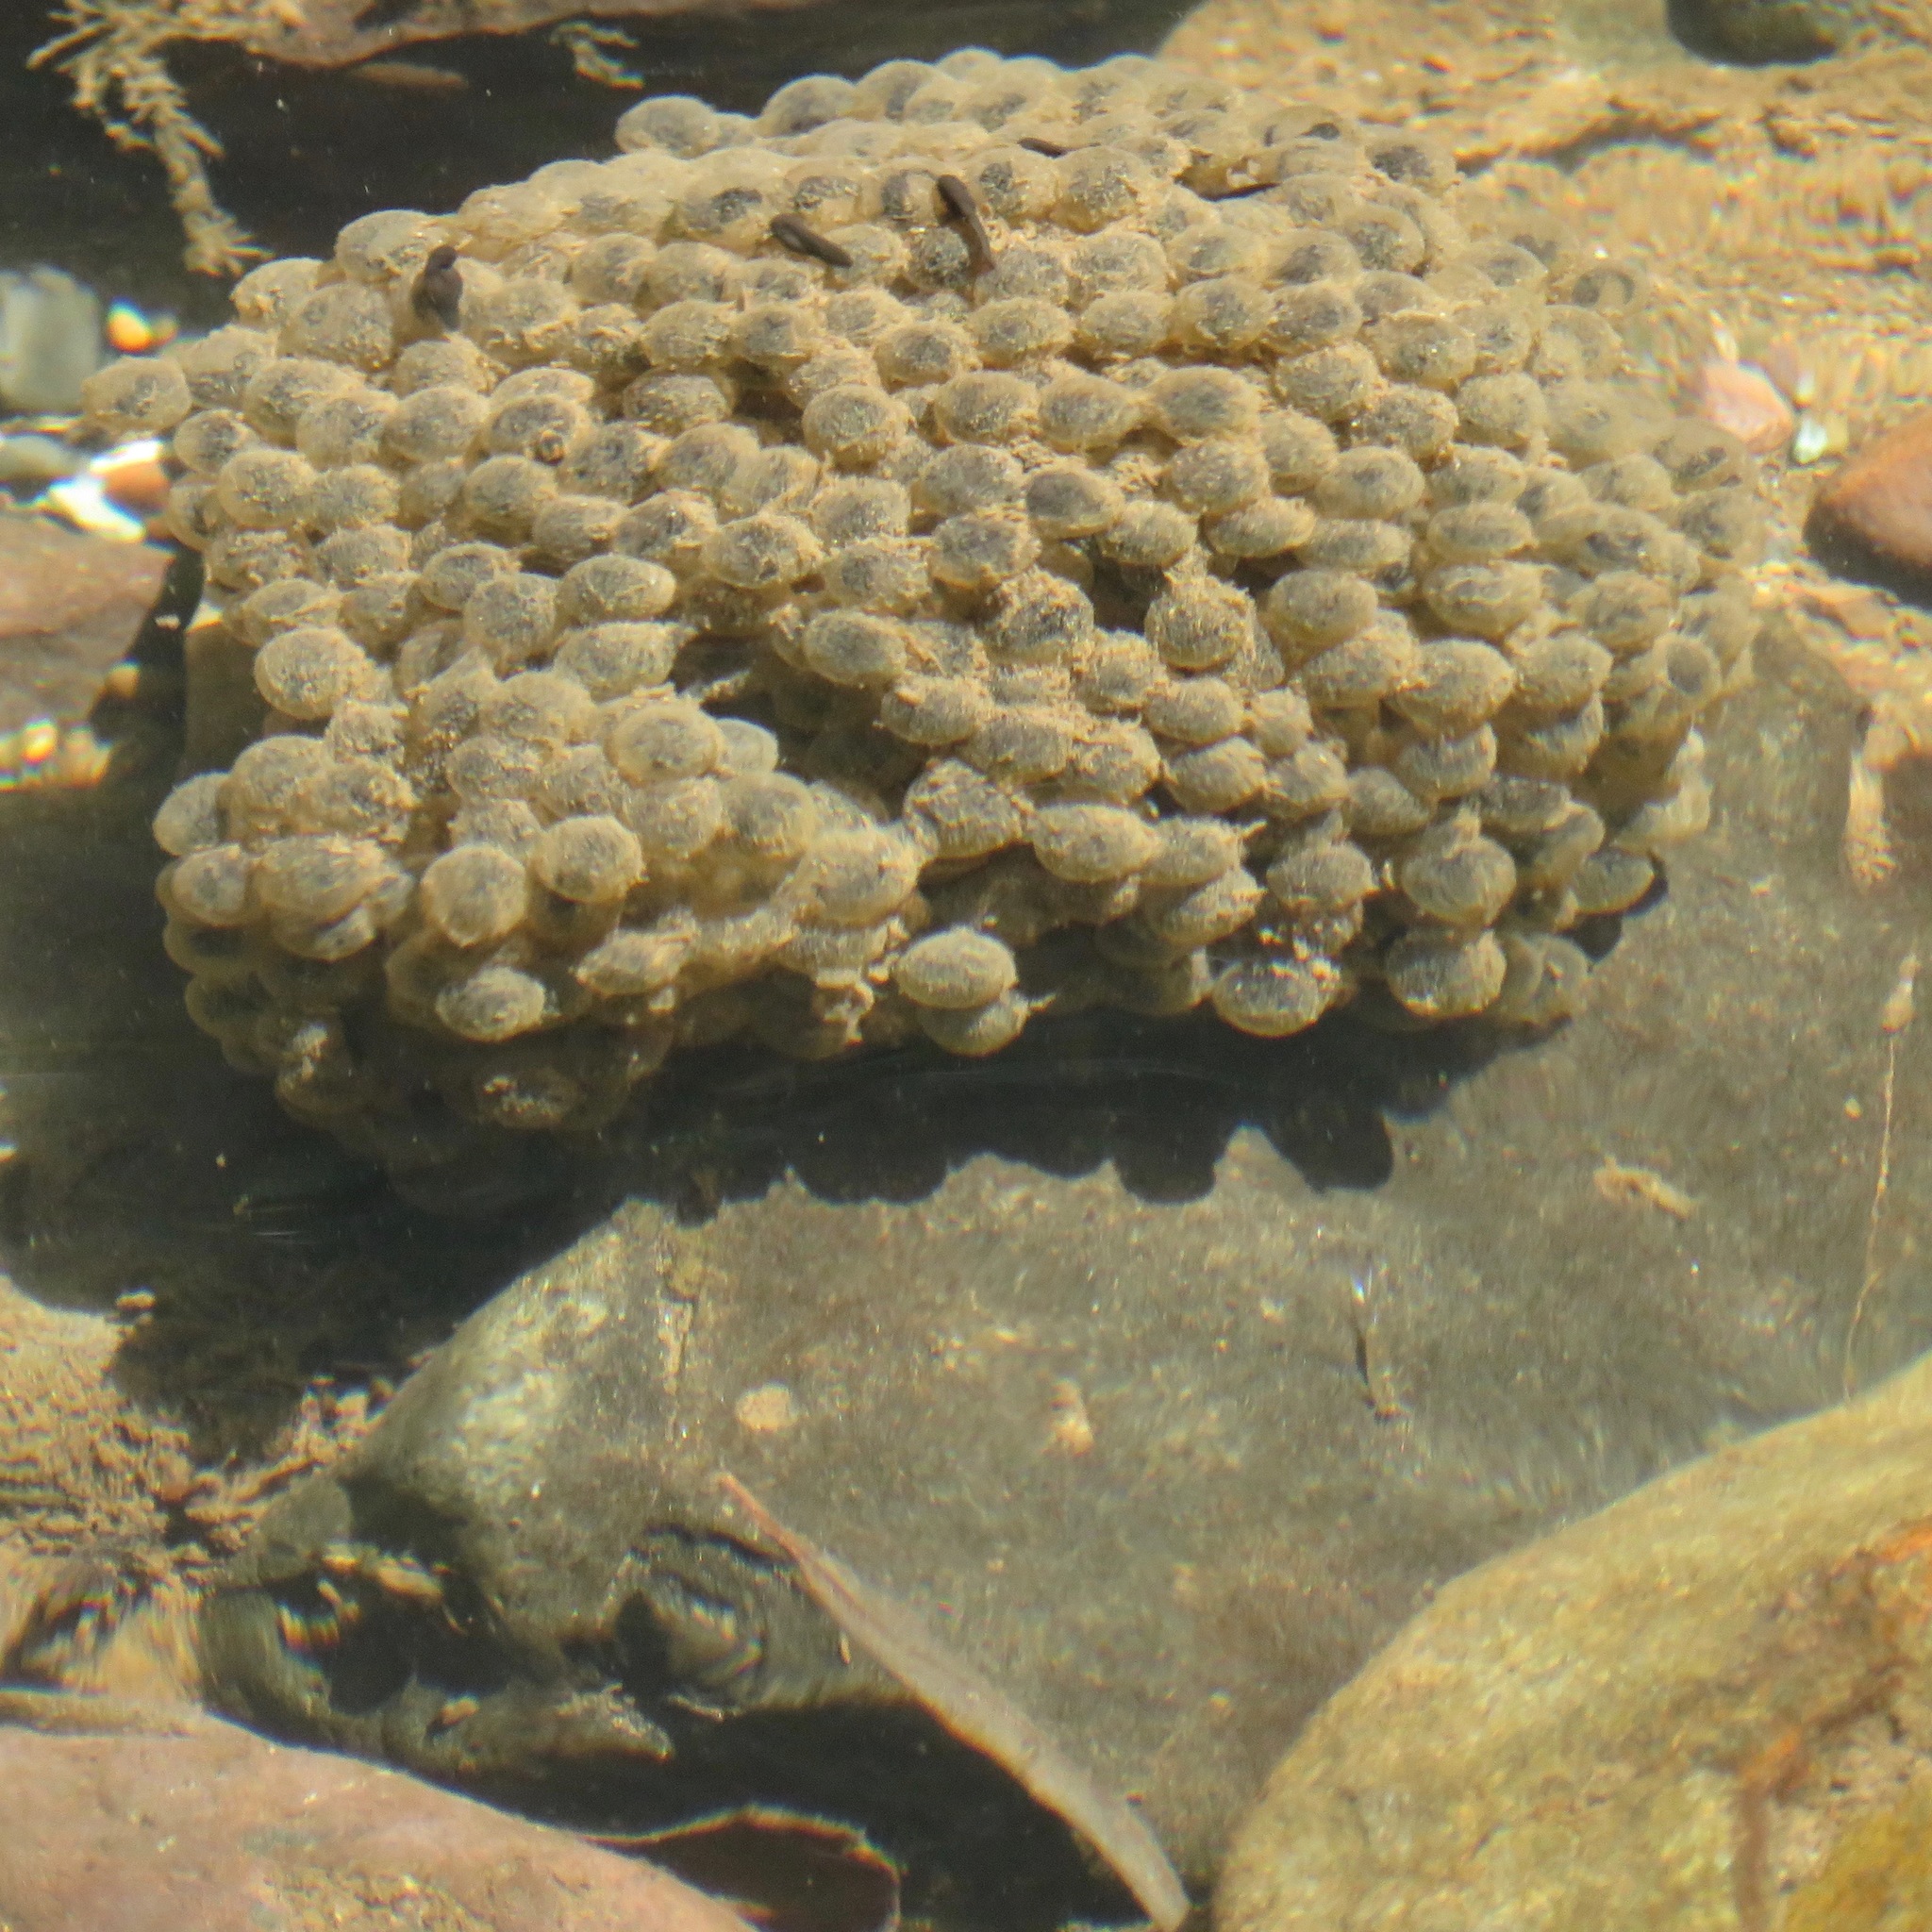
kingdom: Animalia
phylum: Chordata
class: Amphibia
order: Anura
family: Ranidae
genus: Rana
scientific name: Rana boylii
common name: Foothill yellow-legged frog
